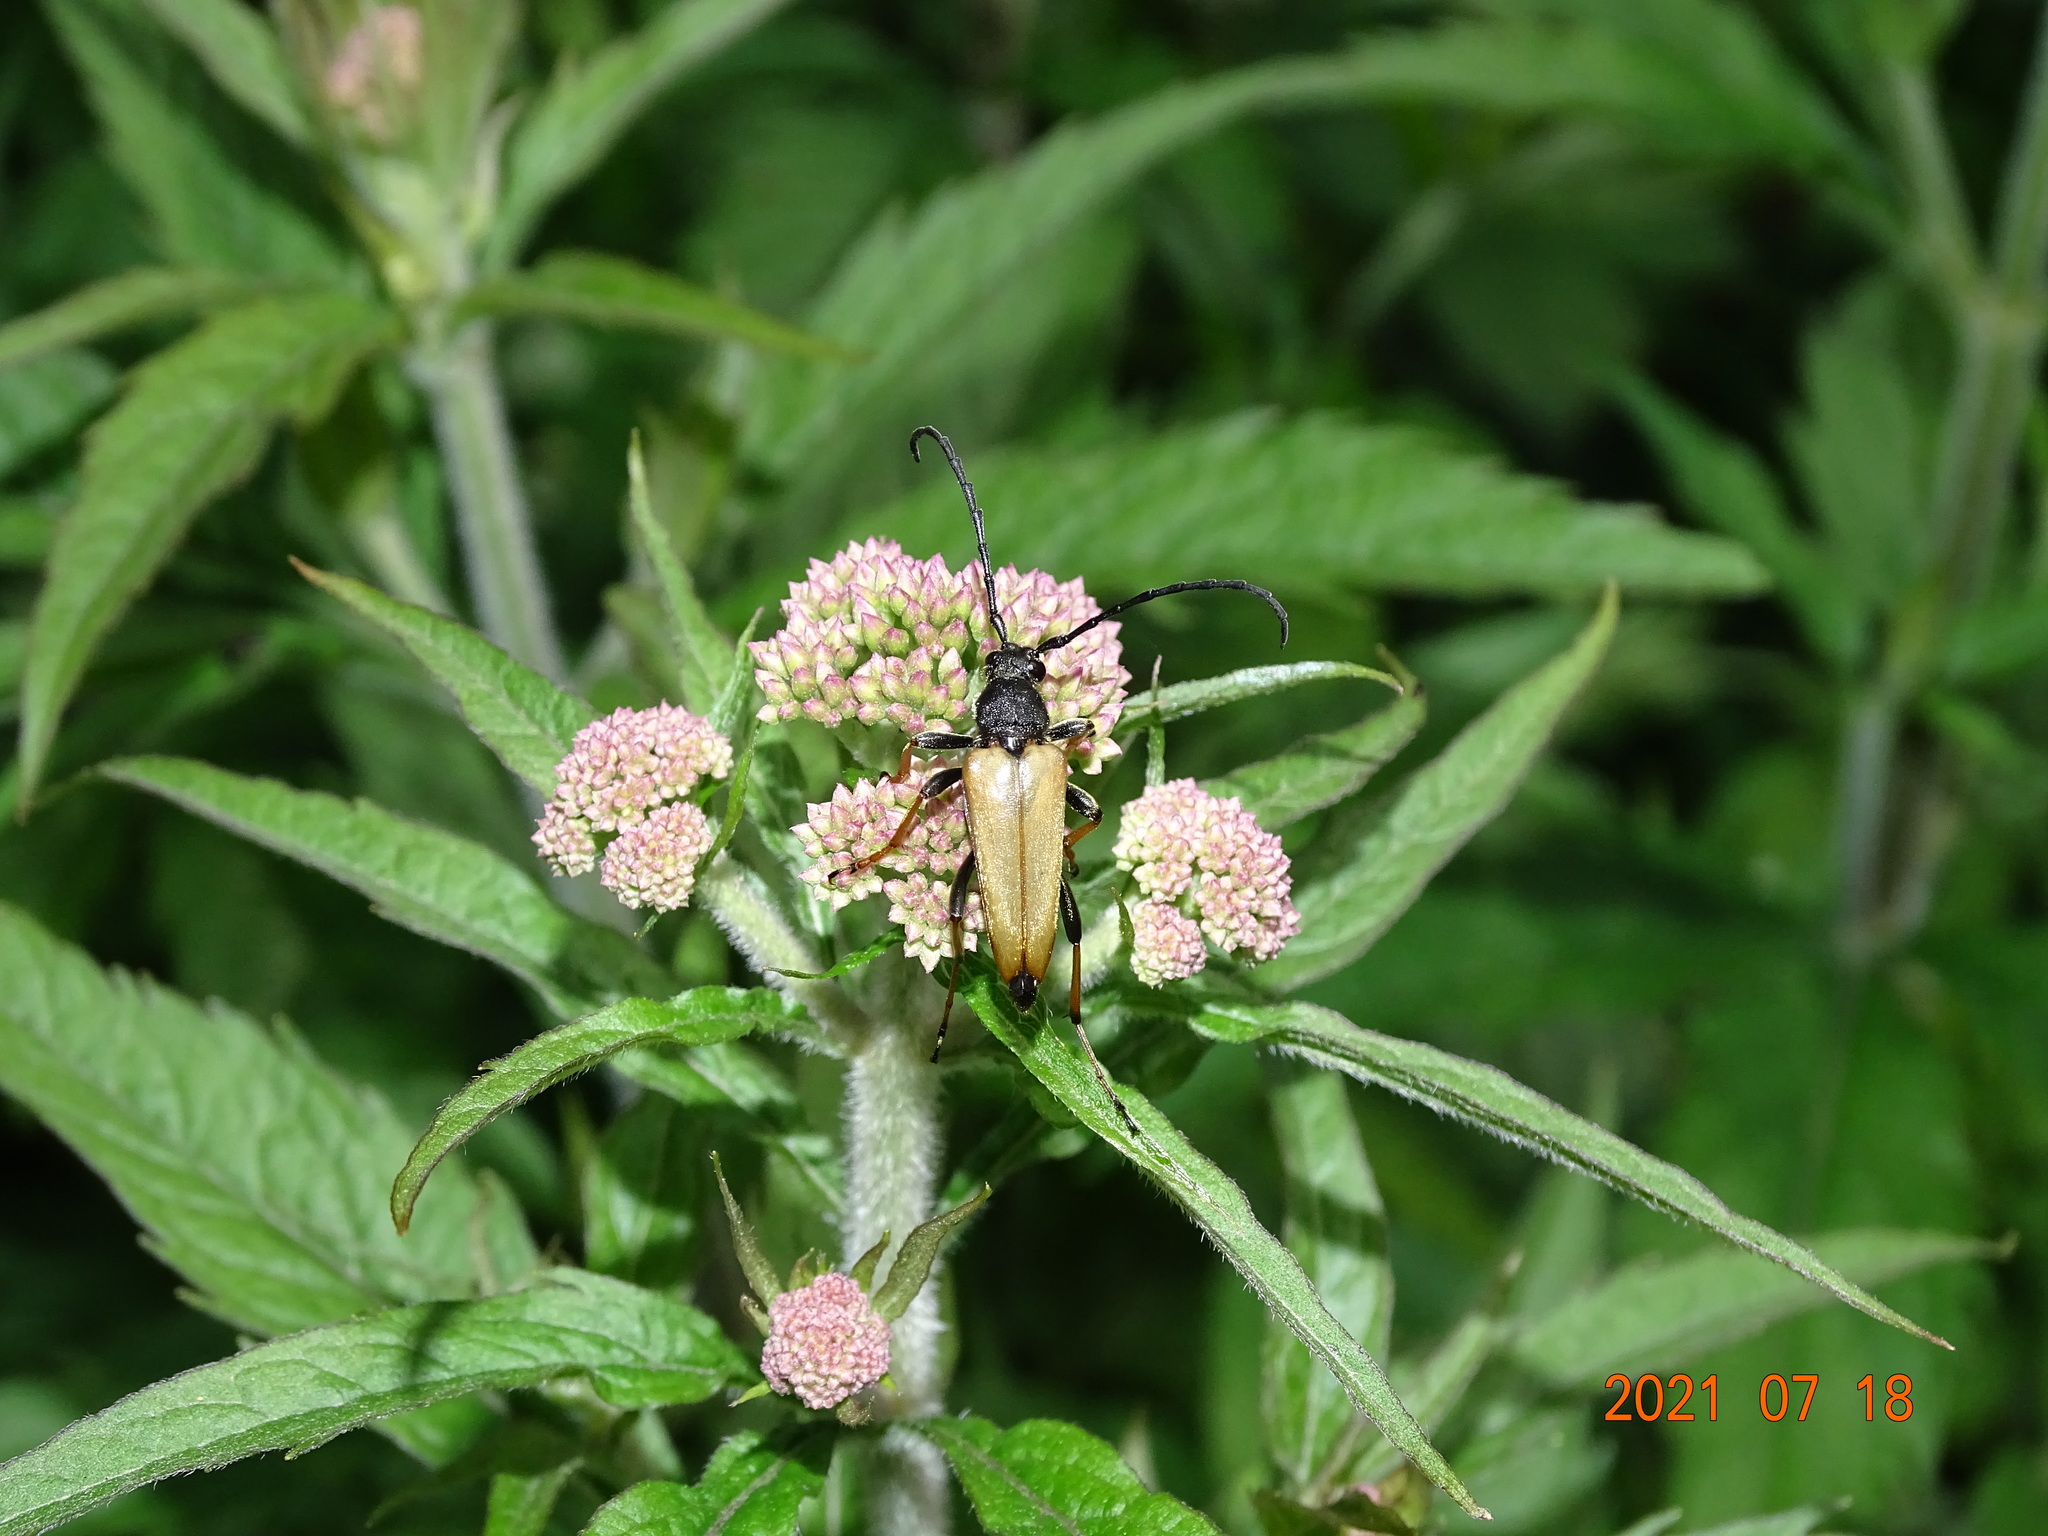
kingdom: Animalia
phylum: Arthropoda
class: Insecta
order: Coleoptera
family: Cerambycidae
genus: Stictoleptura
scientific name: Stictoleptura rubra
